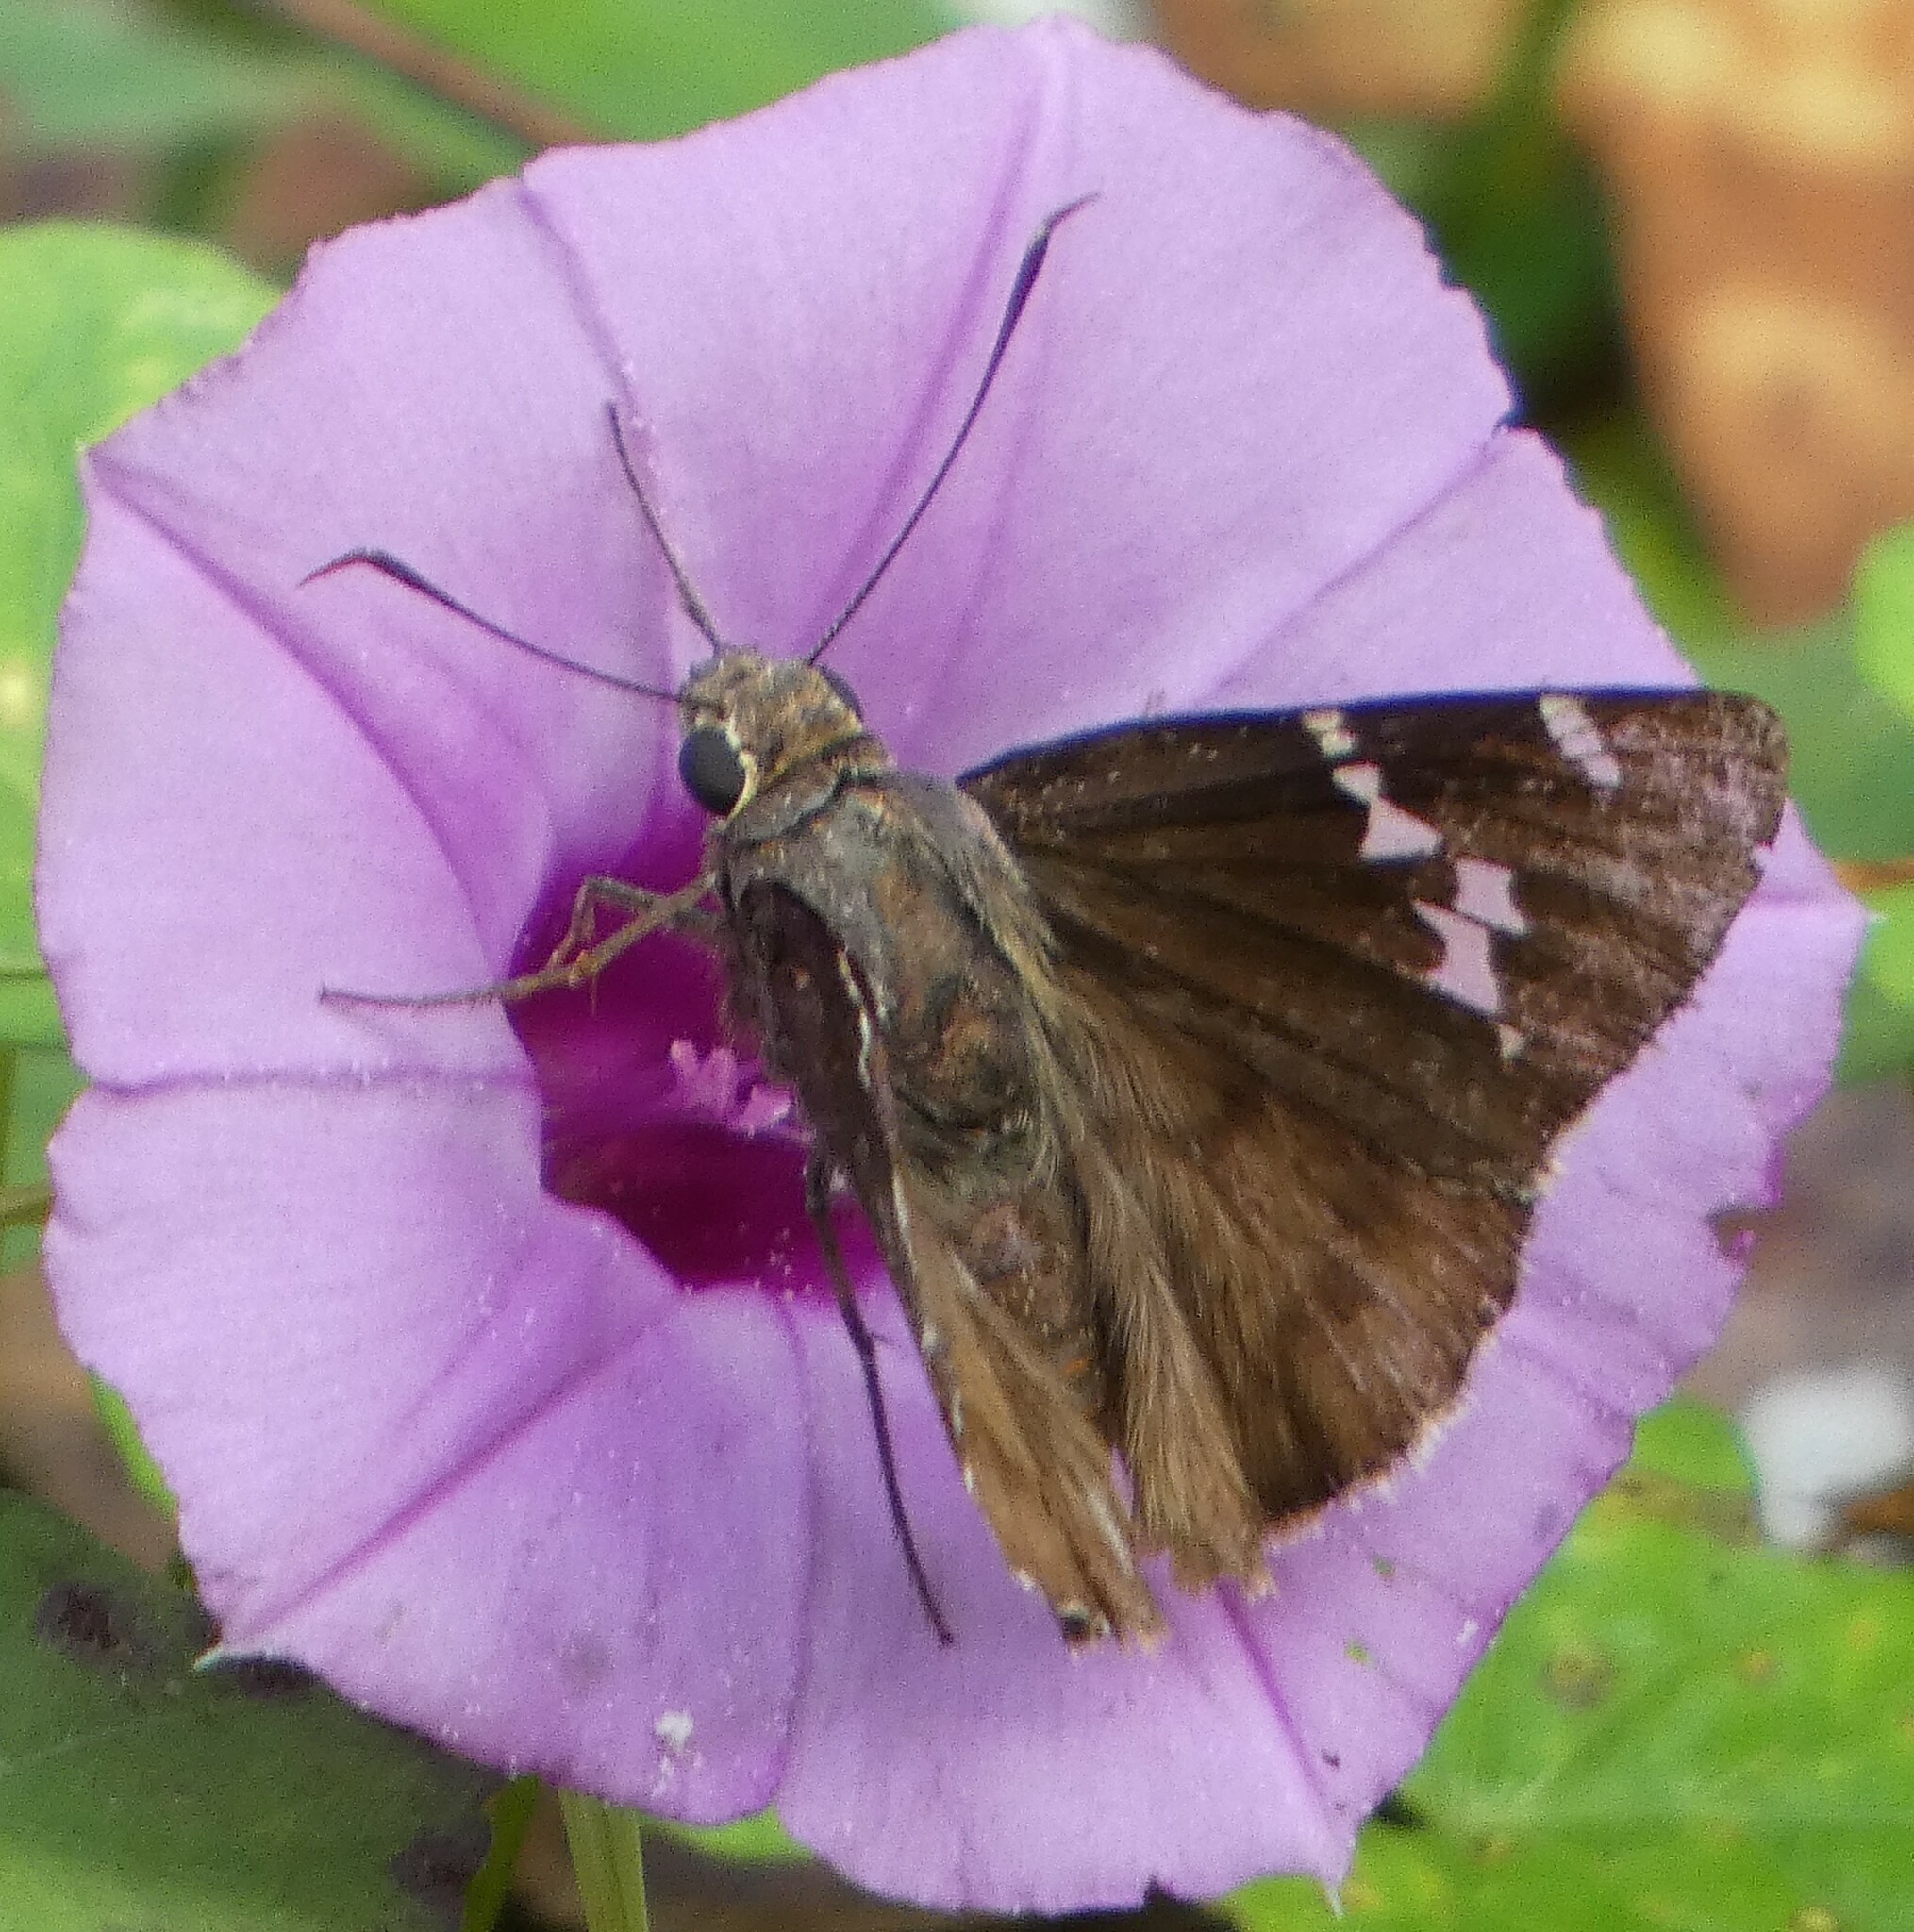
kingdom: Animalia
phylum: Arthropoda
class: Insecta
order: Lepidoptera
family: Hesperiidae
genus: Thorybes
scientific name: Thorybes daunus
